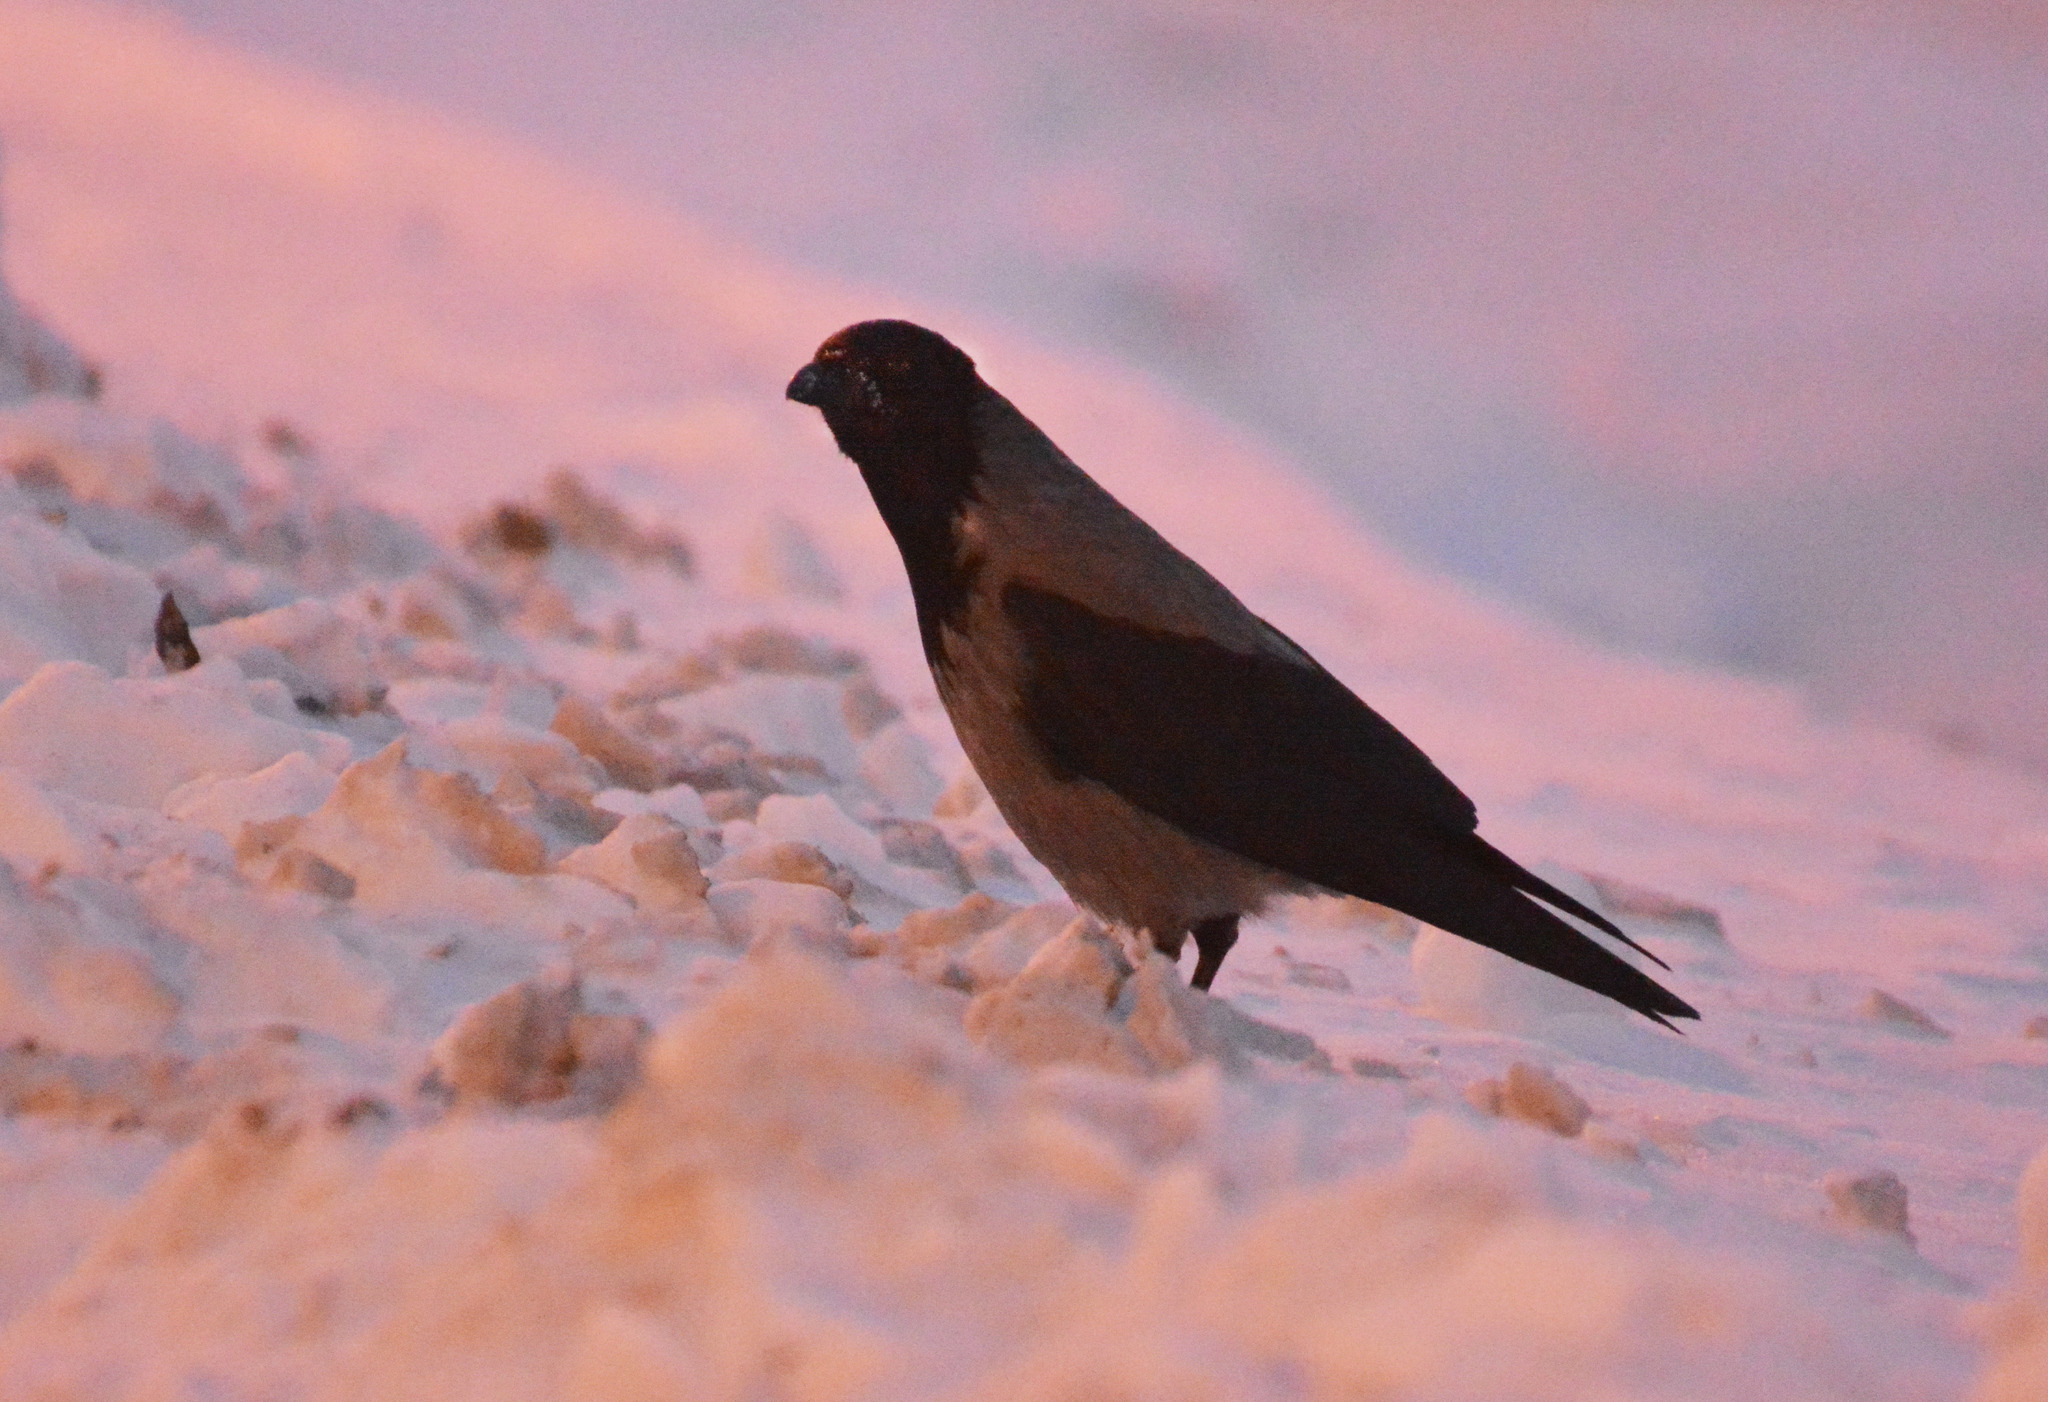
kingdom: Animalia
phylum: Chordata
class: Aves
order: Passeriformes
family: Corvidae
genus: Corvus
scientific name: Corvus cornix
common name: Hooded crow
